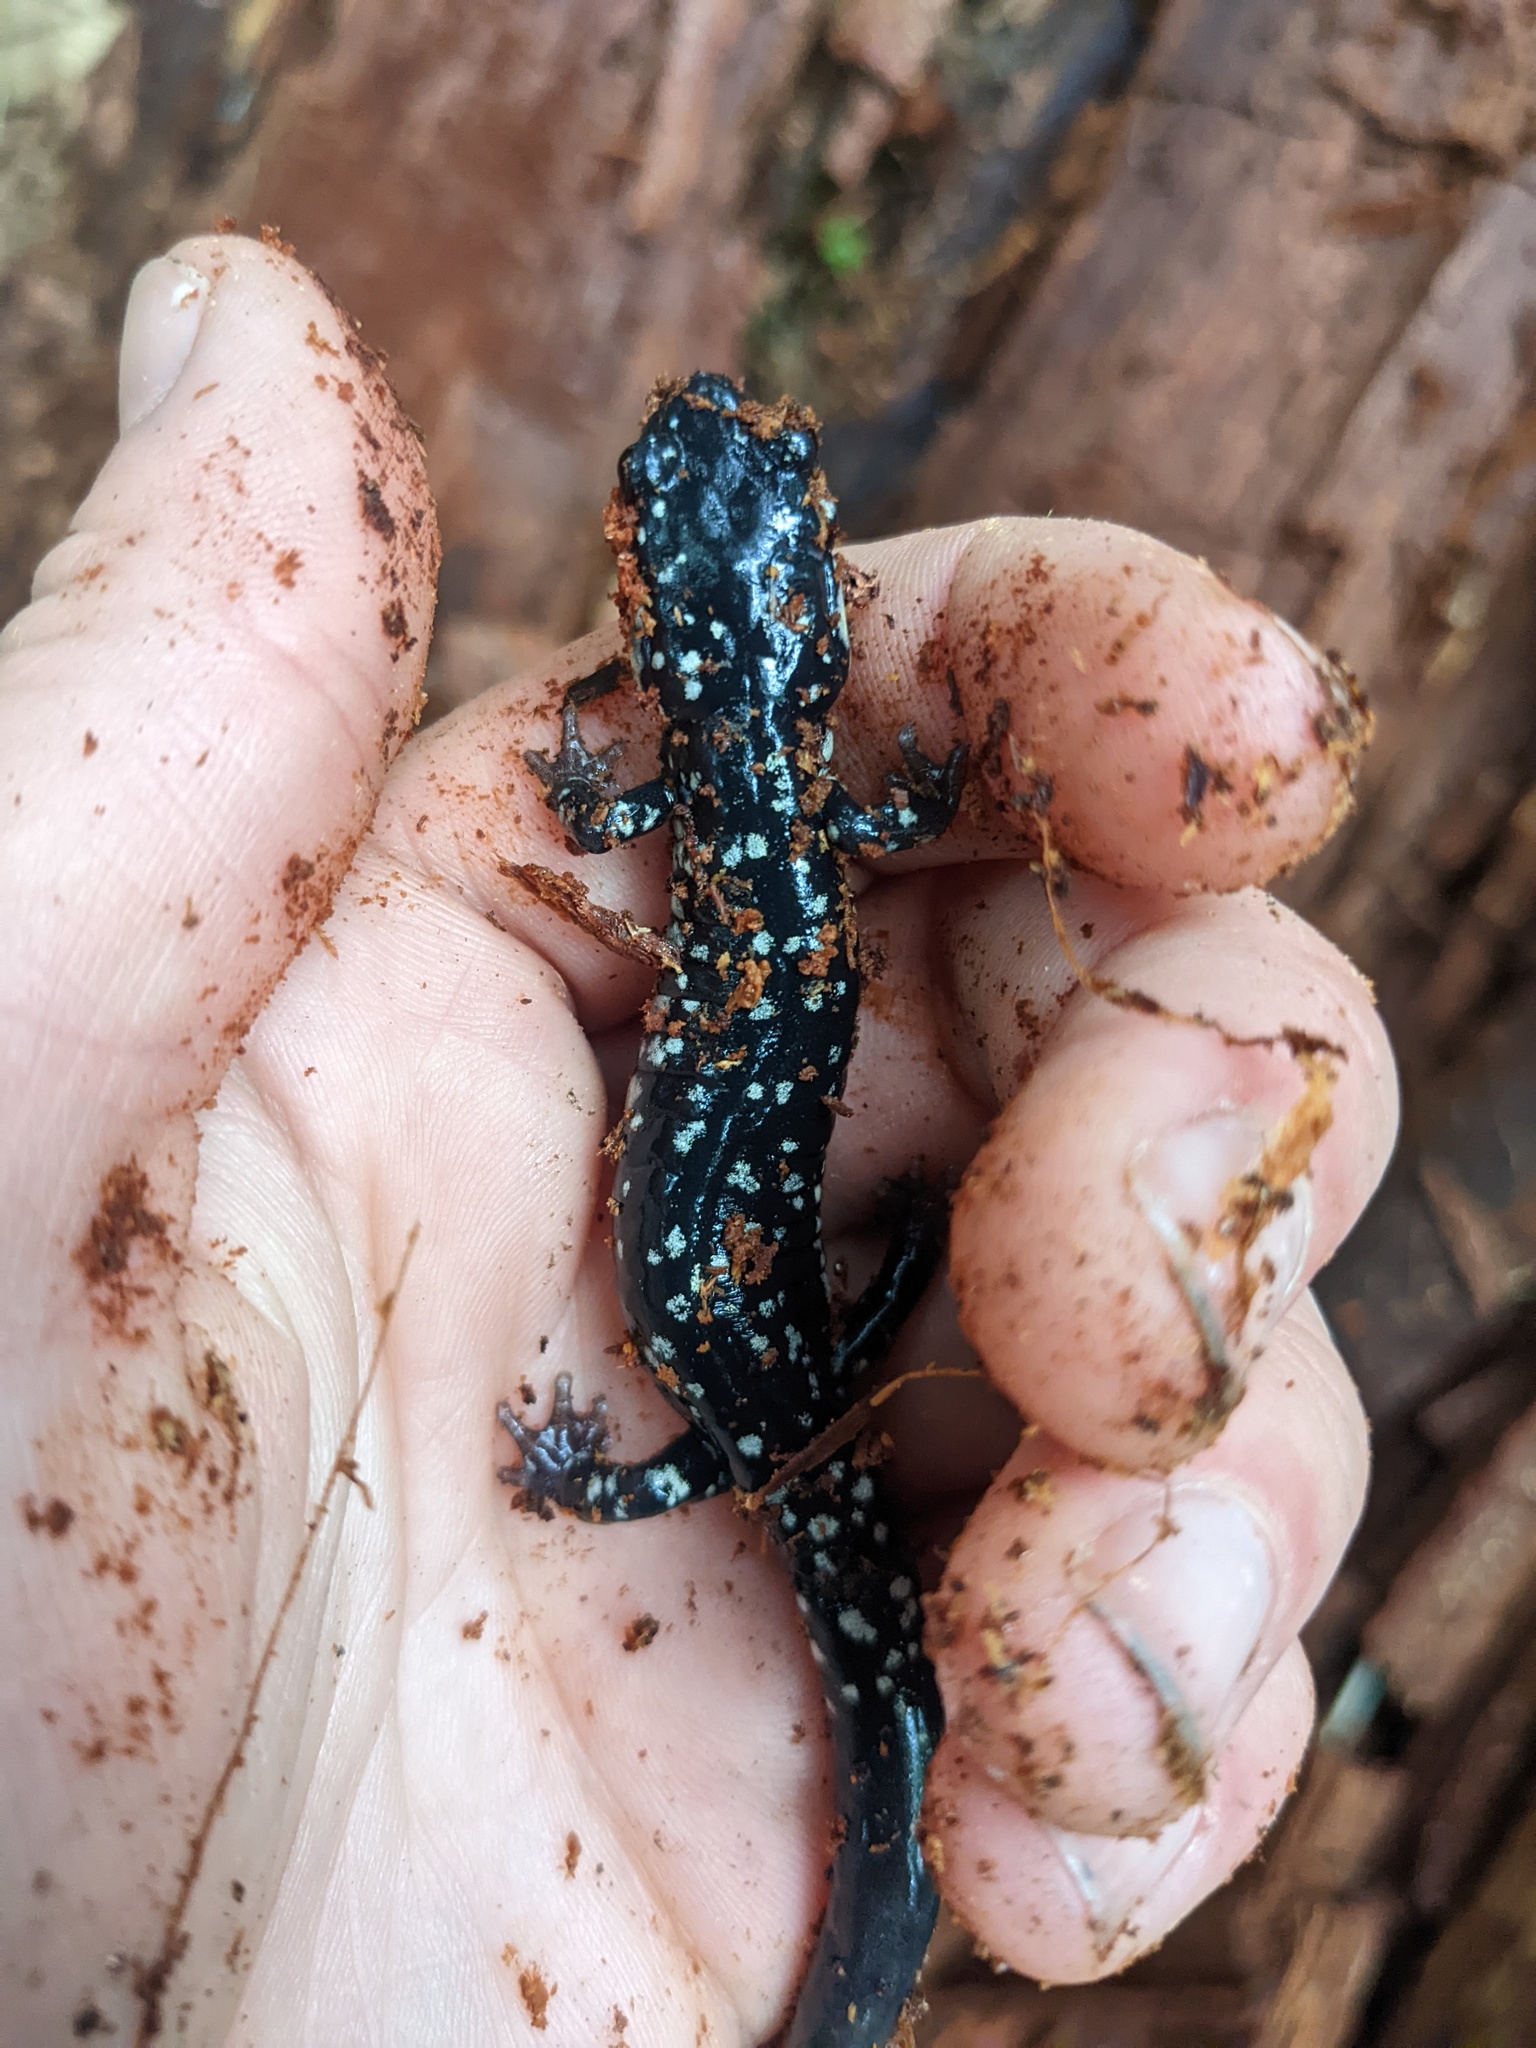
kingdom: Animalia
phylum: Chordata
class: Amphibia
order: Caudata
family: Plethodontidae
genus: Plethodon
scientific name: Plethodon glutinosus
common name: Northern slimy salamander
